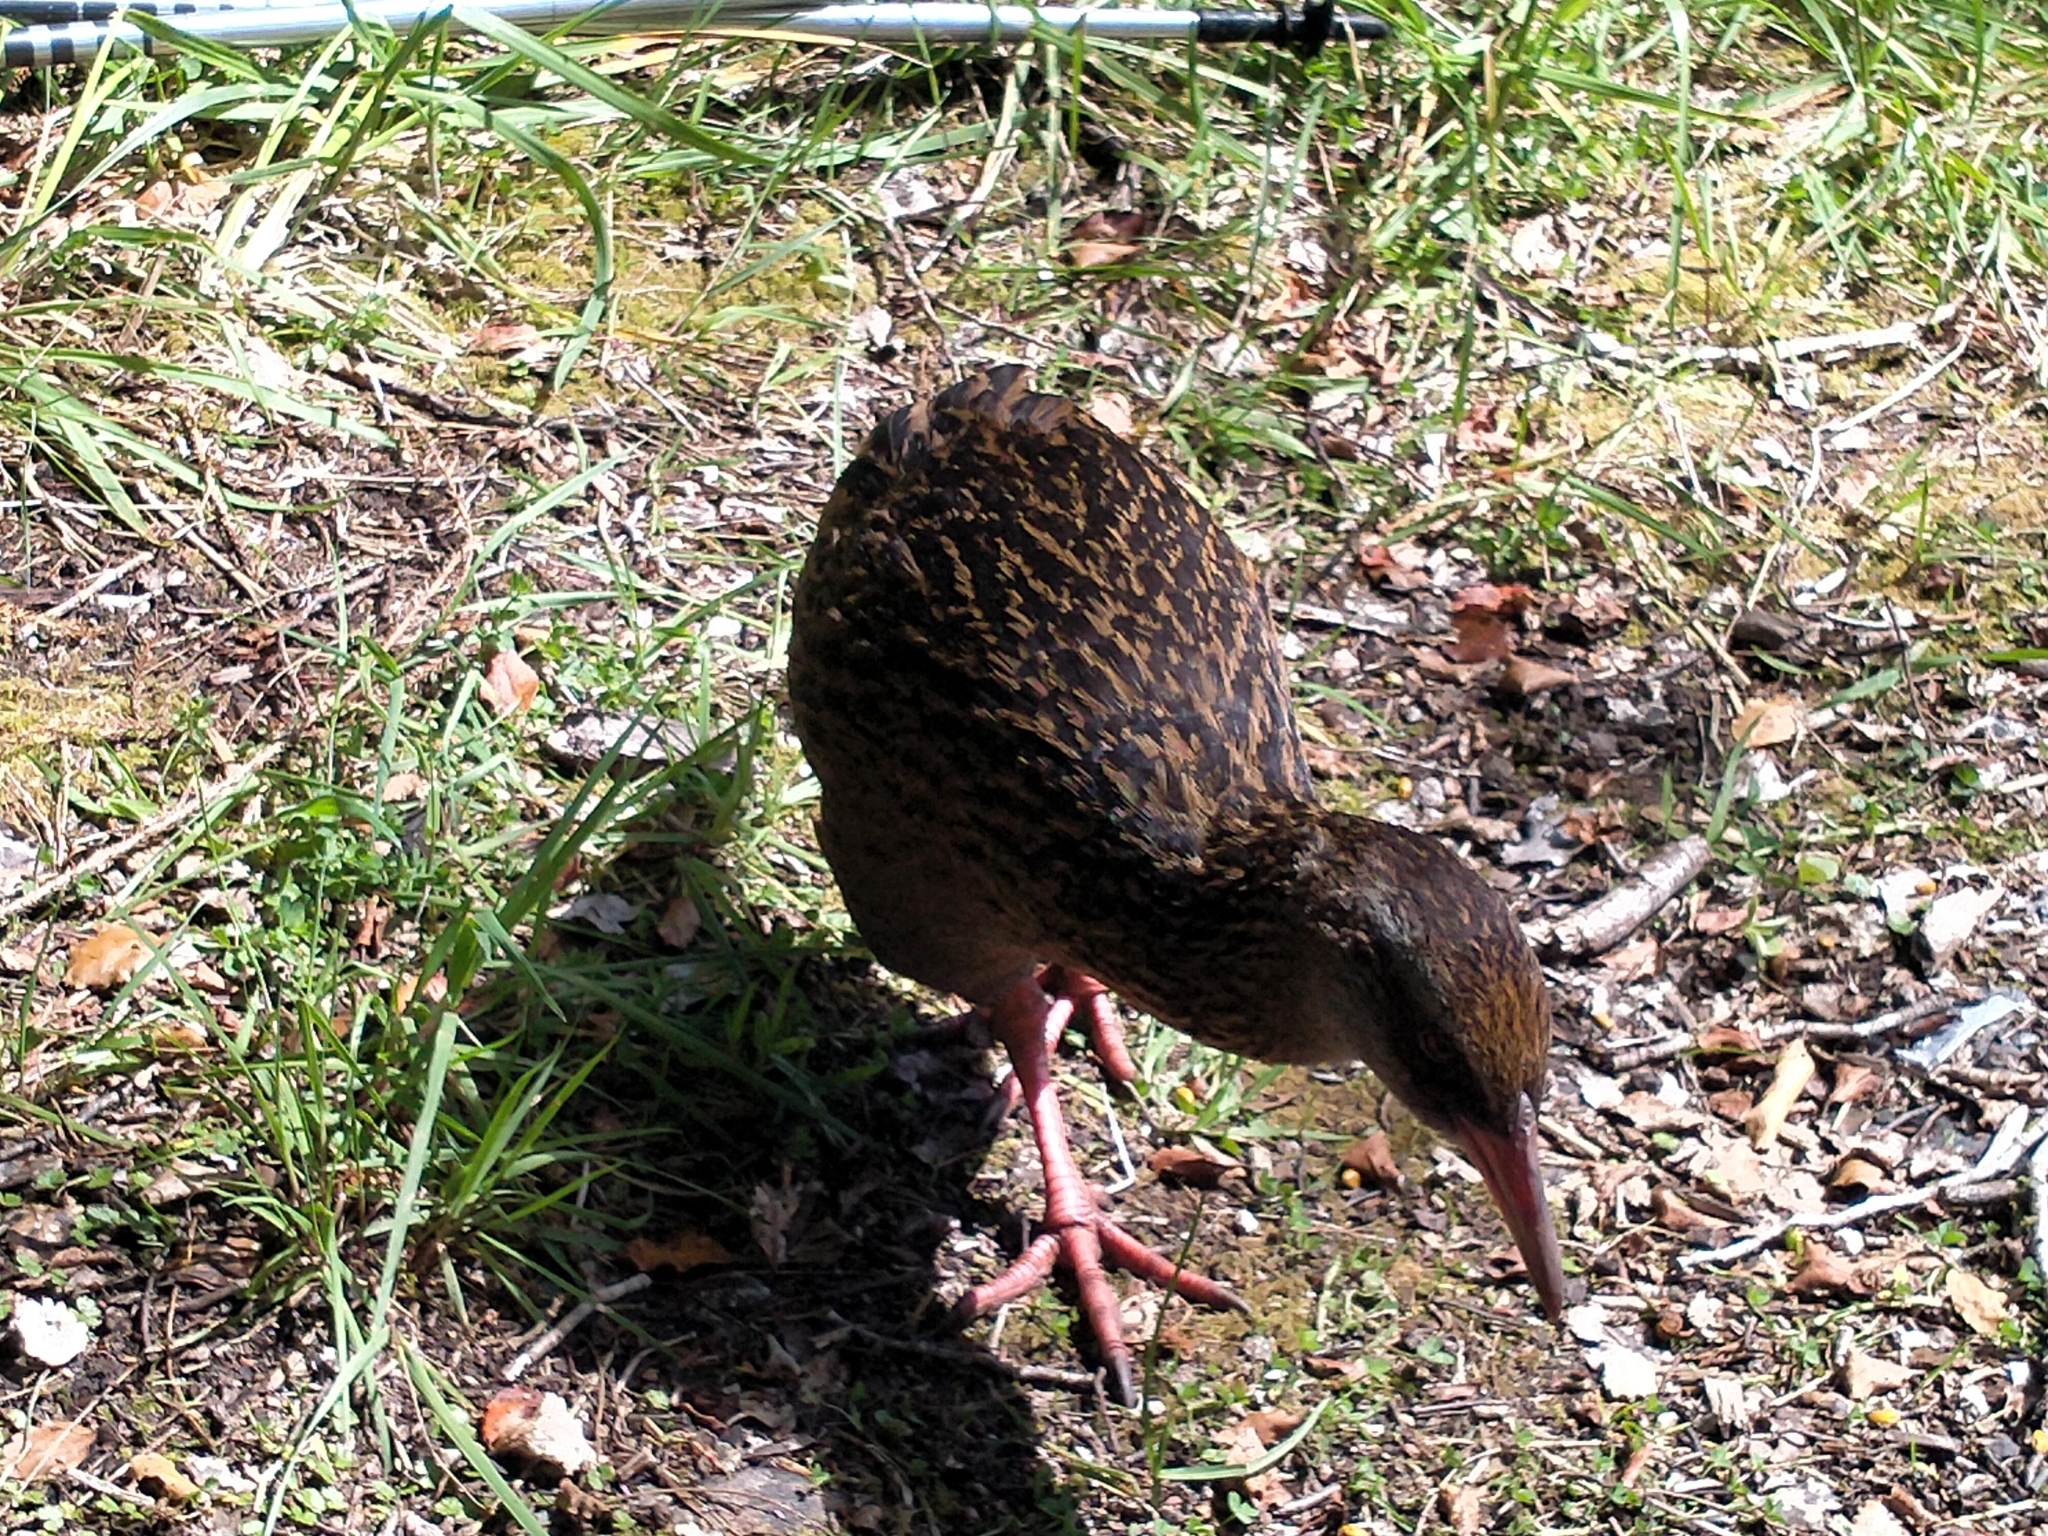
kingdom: Animalia
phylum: Chordata
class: Aves
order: Gruiformes
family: Rallidae
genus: Gallirallus
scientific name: Gallirallus australis
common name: Weka
